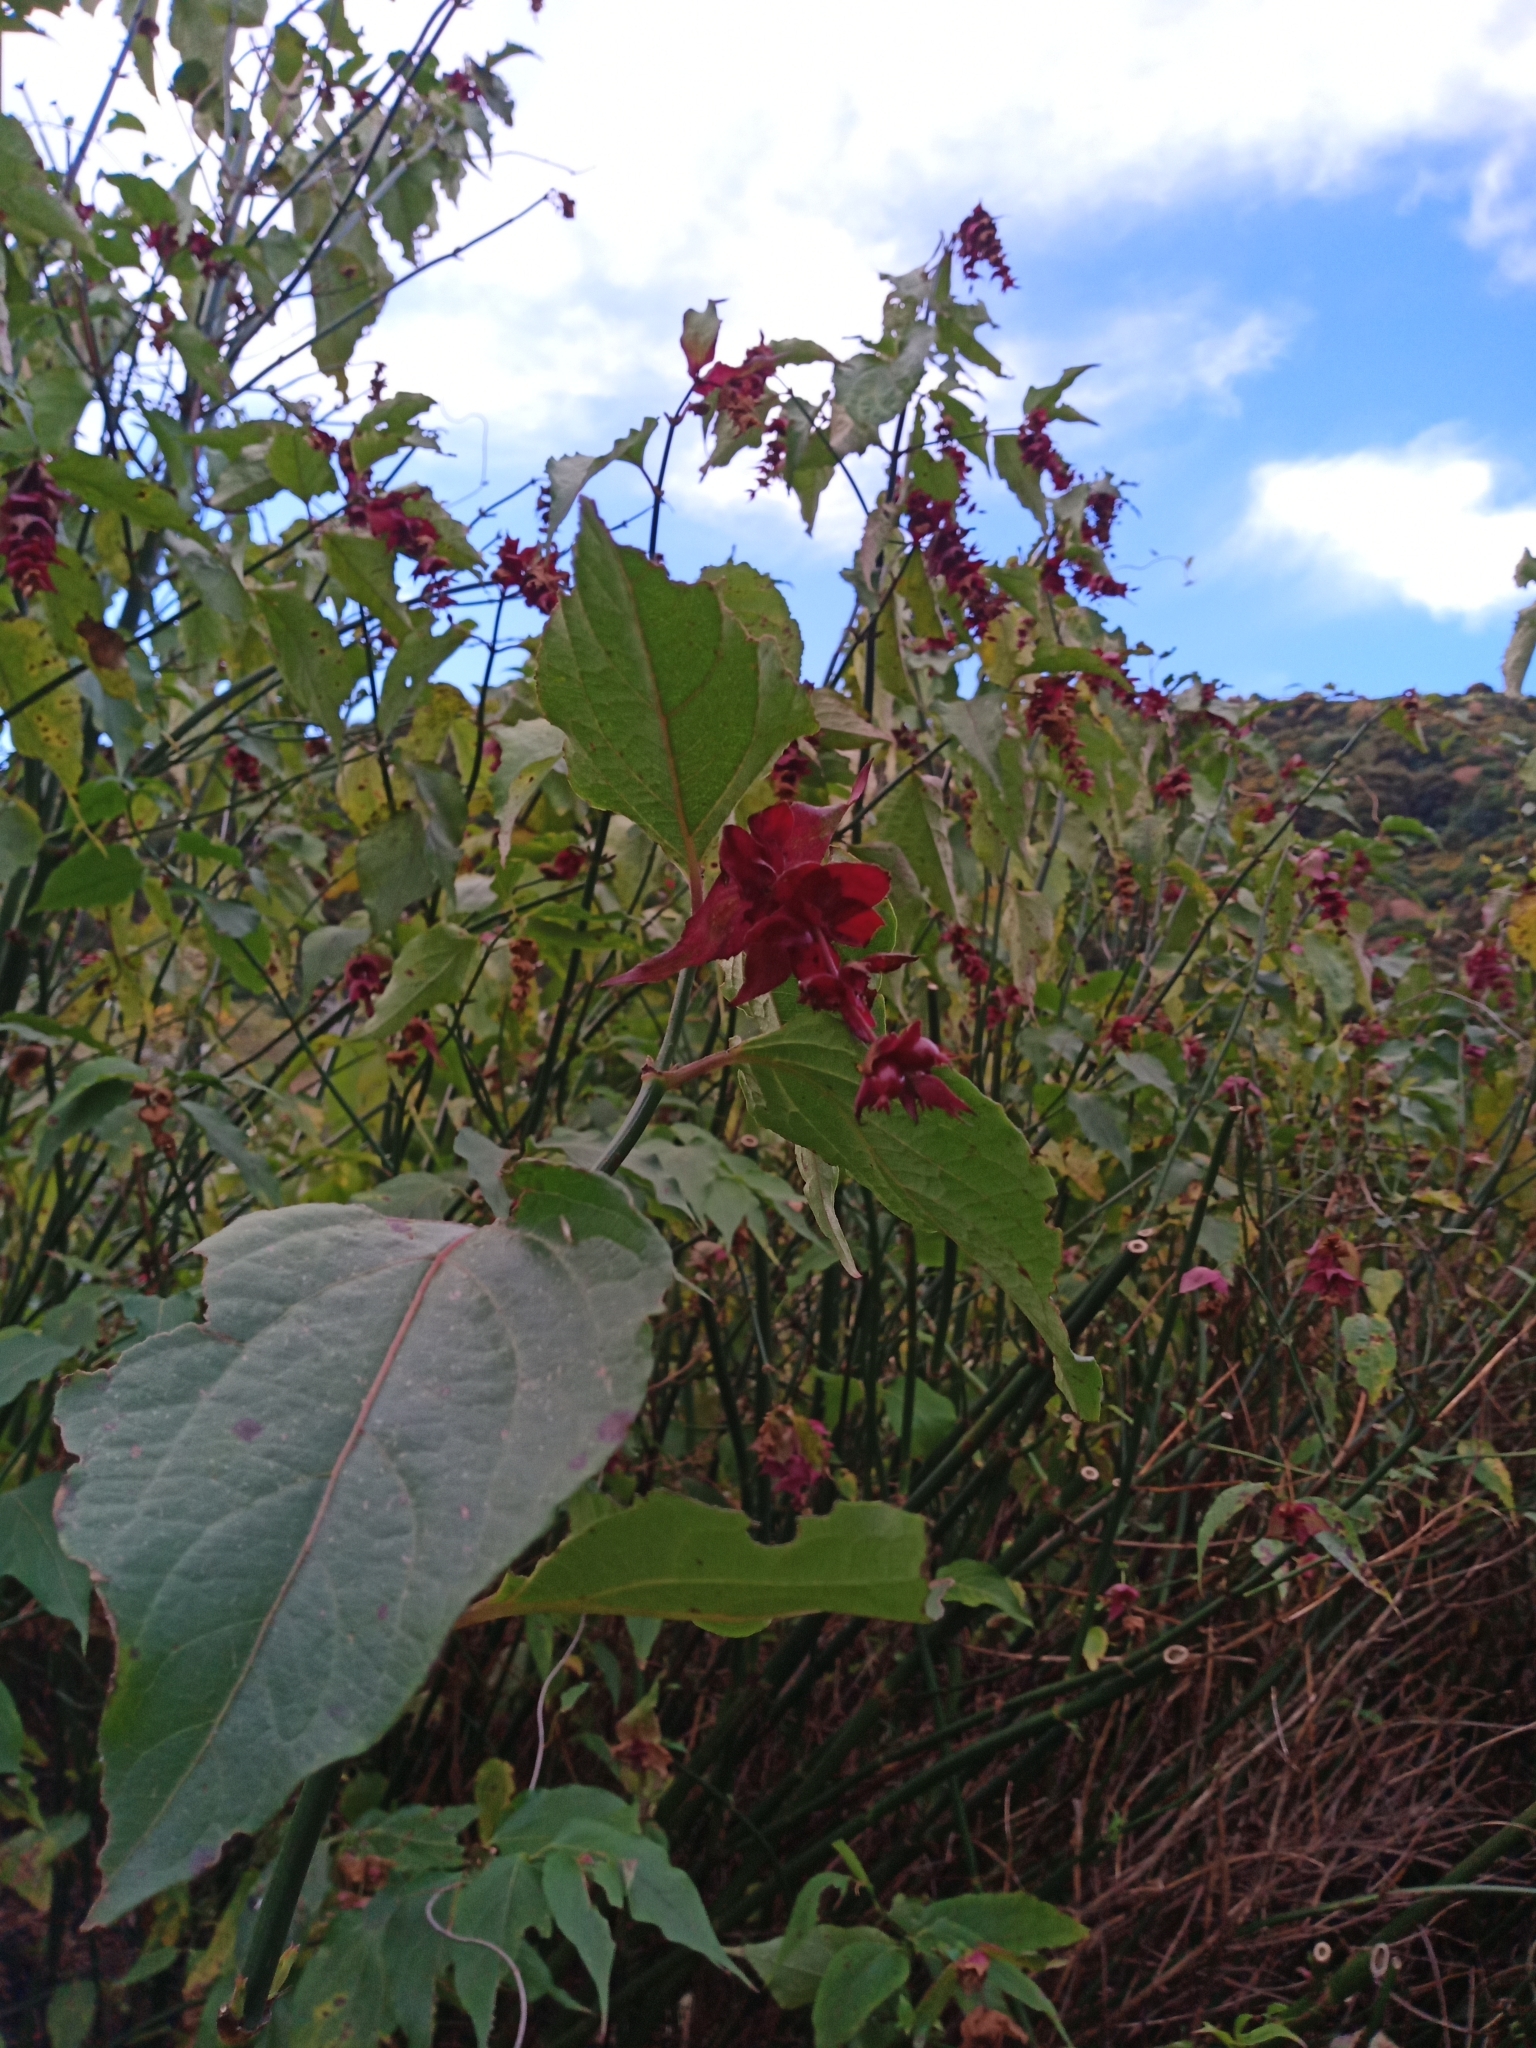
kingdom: Plantae
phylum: Tracheophyta
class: Magnoliopsida
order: Dipsacales
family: Caprifoliaceae
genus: Leycesteria
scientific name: Leycesteria formosa
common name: Himalayan honeysuckle
